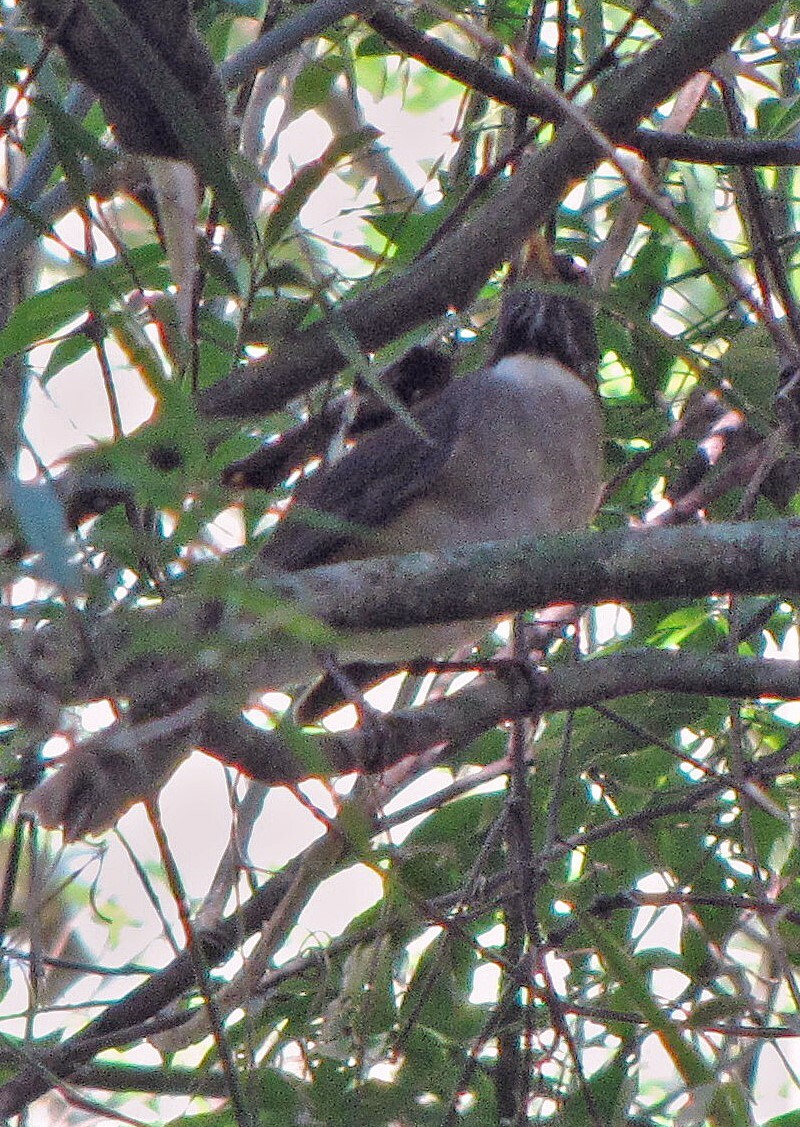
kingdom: Animalia
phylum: Chordata
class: Aves
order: Passeriformes
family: Turdidae
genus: Turdus
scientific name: Turdus albicollis
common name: White-necked thrush
